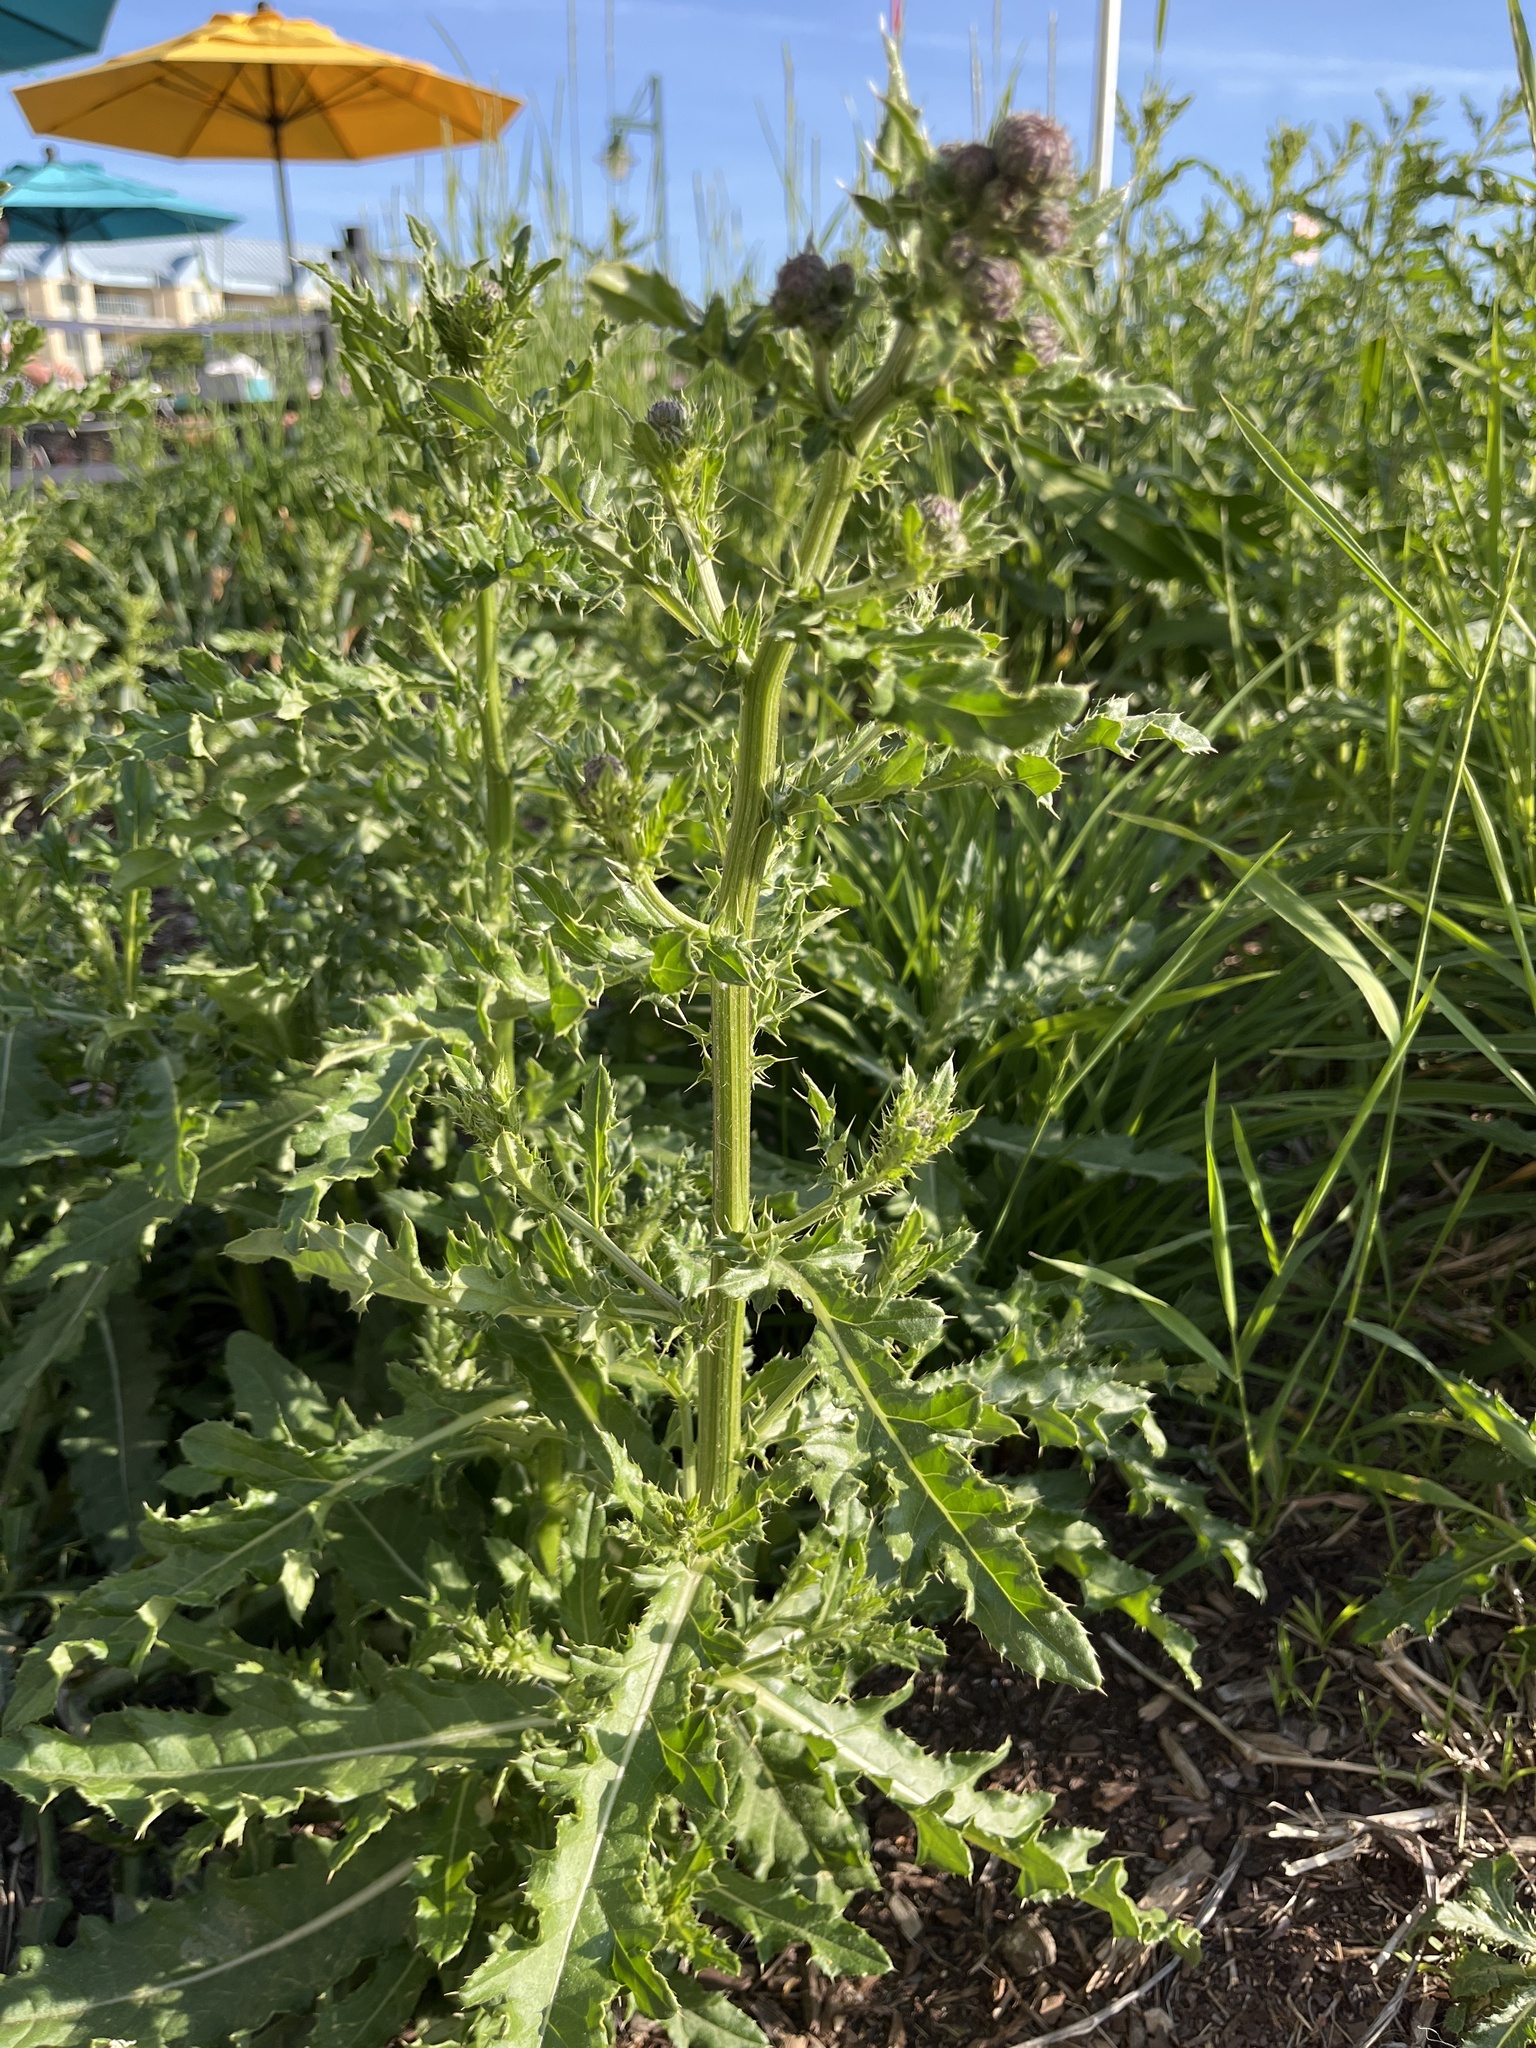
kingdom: Plantae
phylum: Tracheophyta
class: Magnoliopsida
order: Asterales
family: Asteraceae
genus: Cirsium
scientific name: Cirsium arvense
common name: Creeping thistle
